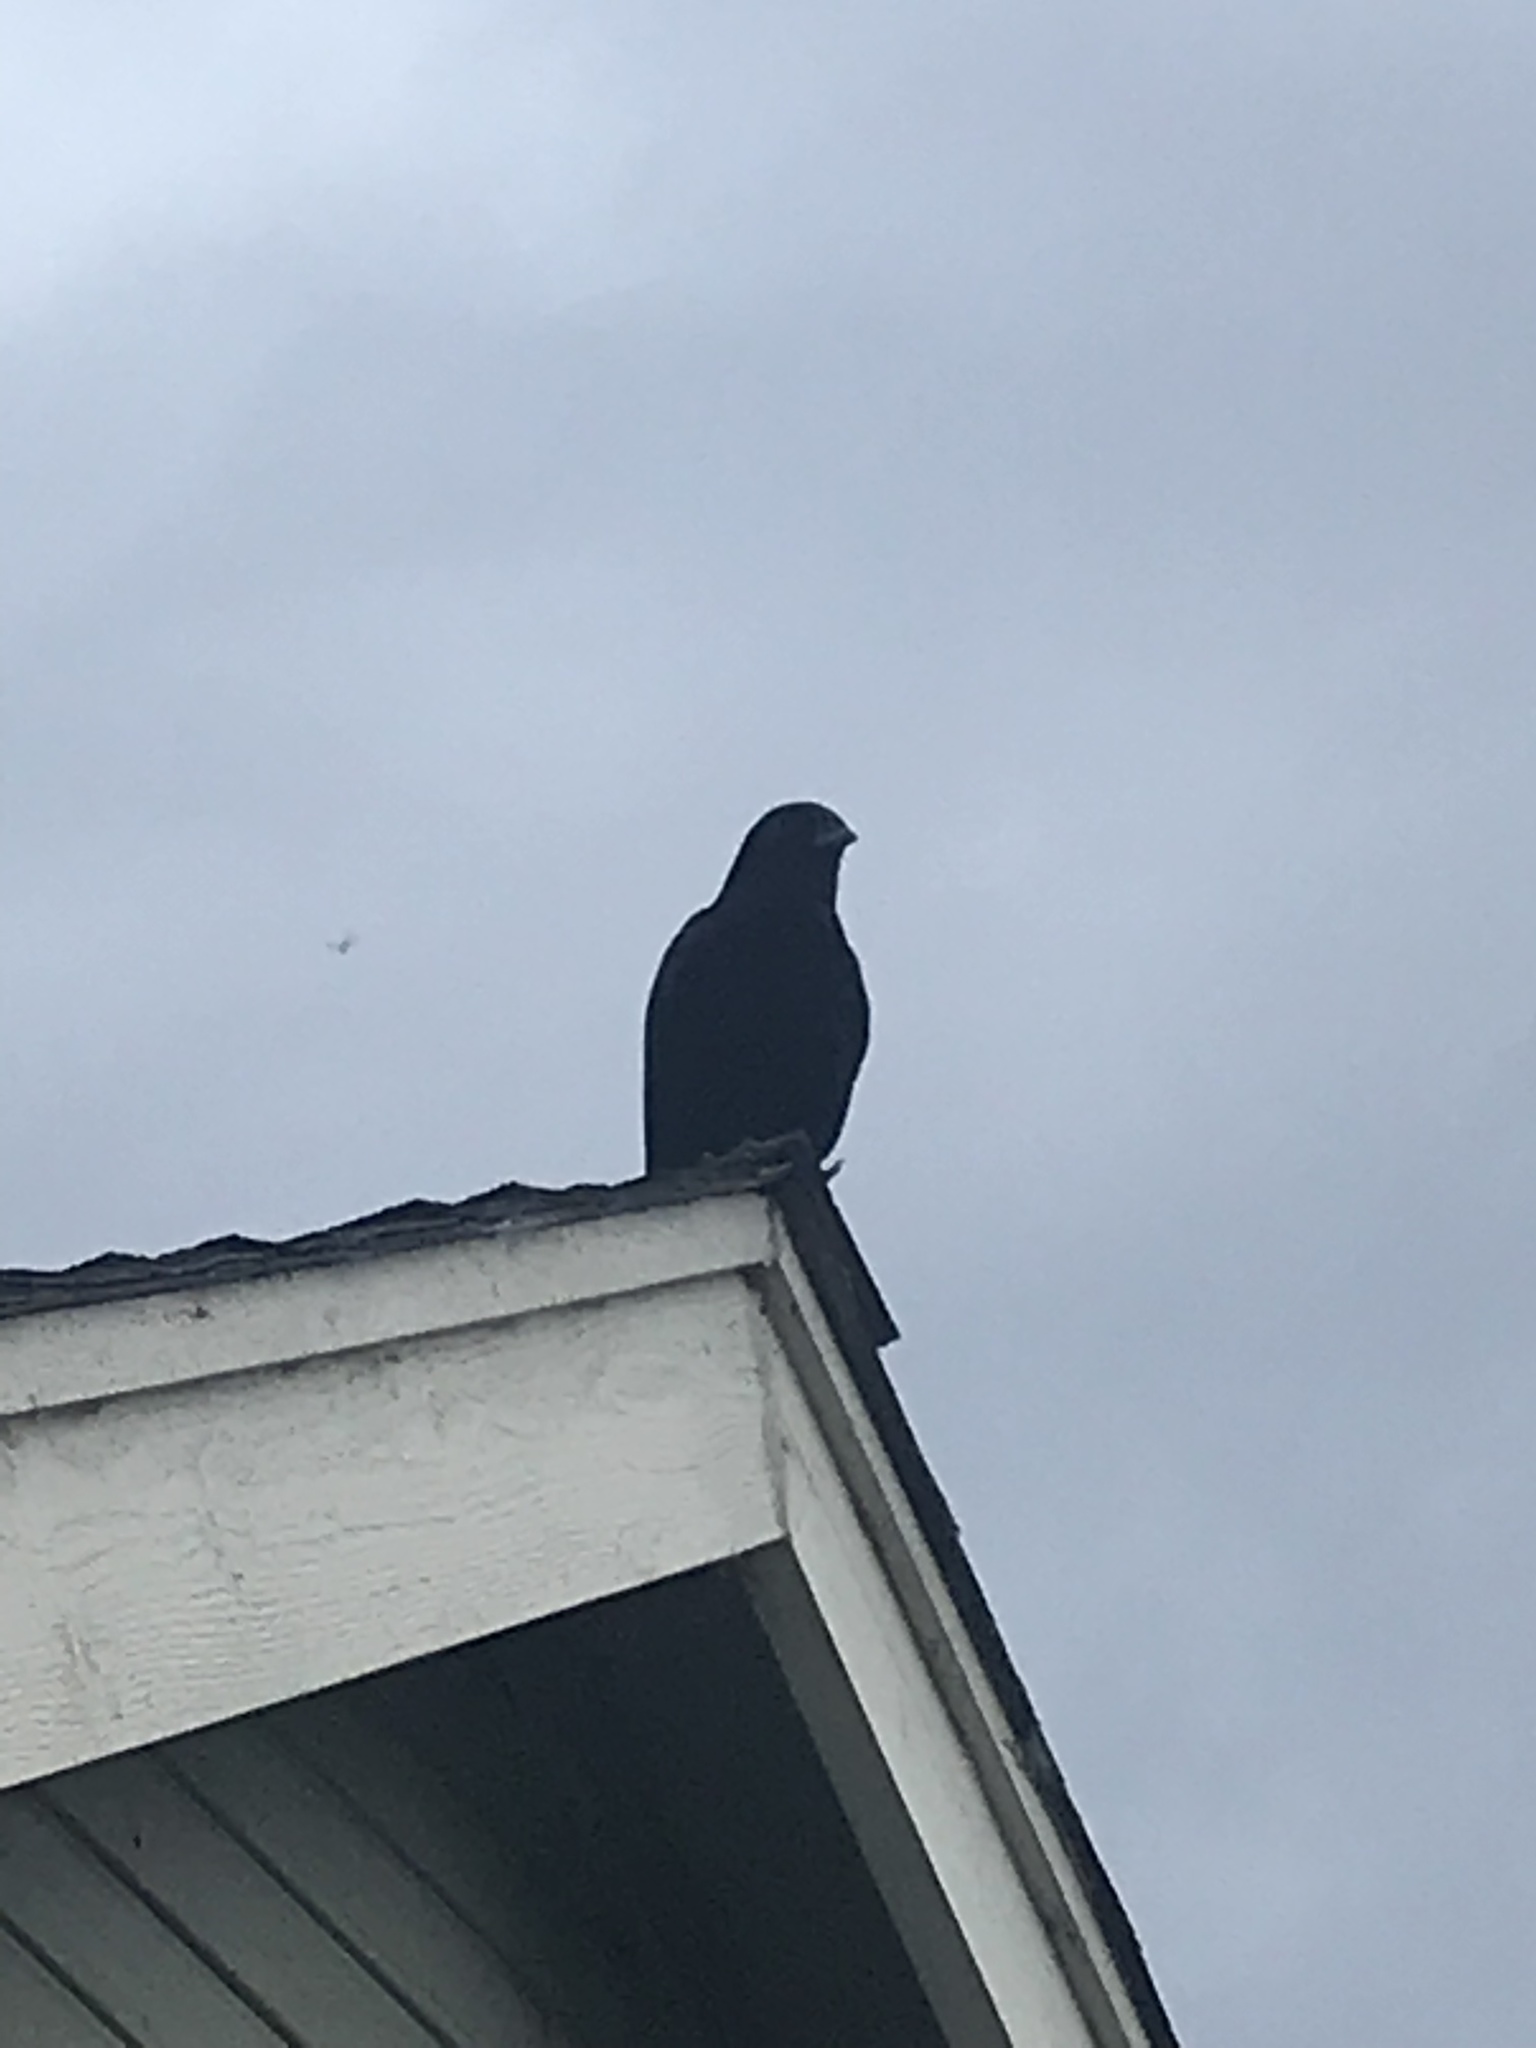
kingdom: Animalia
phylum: Chordata
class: Aves
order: Passeriformes
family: Corvidae
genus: Corvus
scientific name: Corvus brachyrhynchos
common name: American crow
